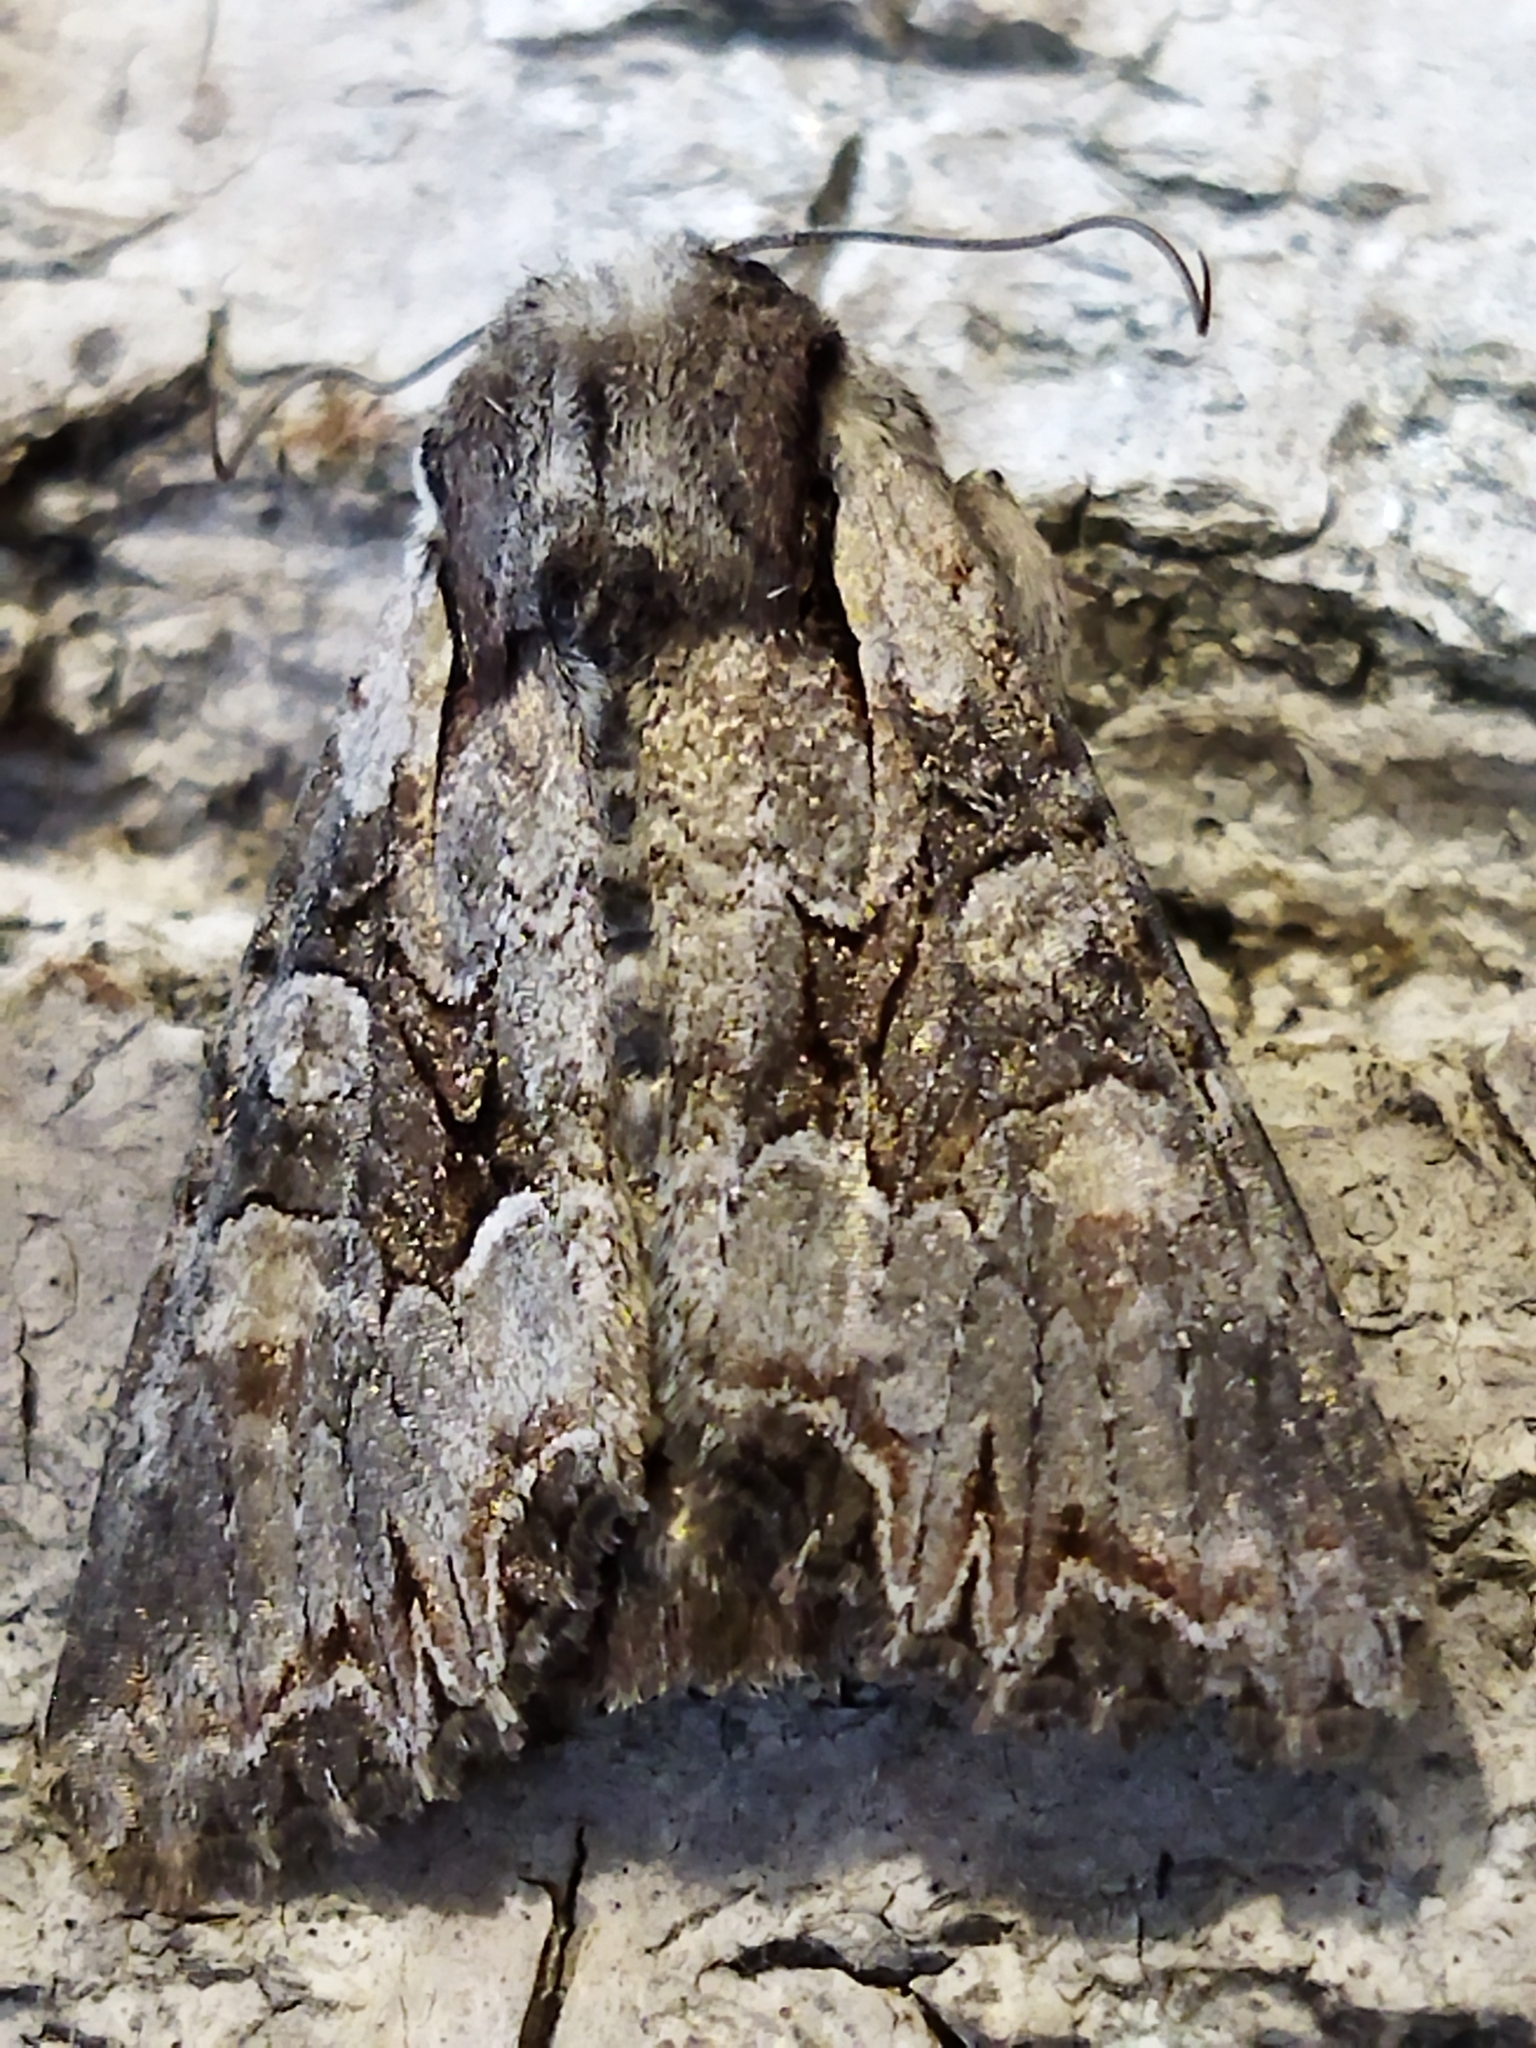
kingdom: Animalia
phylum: Arthropoda
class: Insecta
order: Lepidoptera
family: Noctuidae
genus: Lacanobia
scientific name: Lacanobia w-latinum
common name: Light brocade
